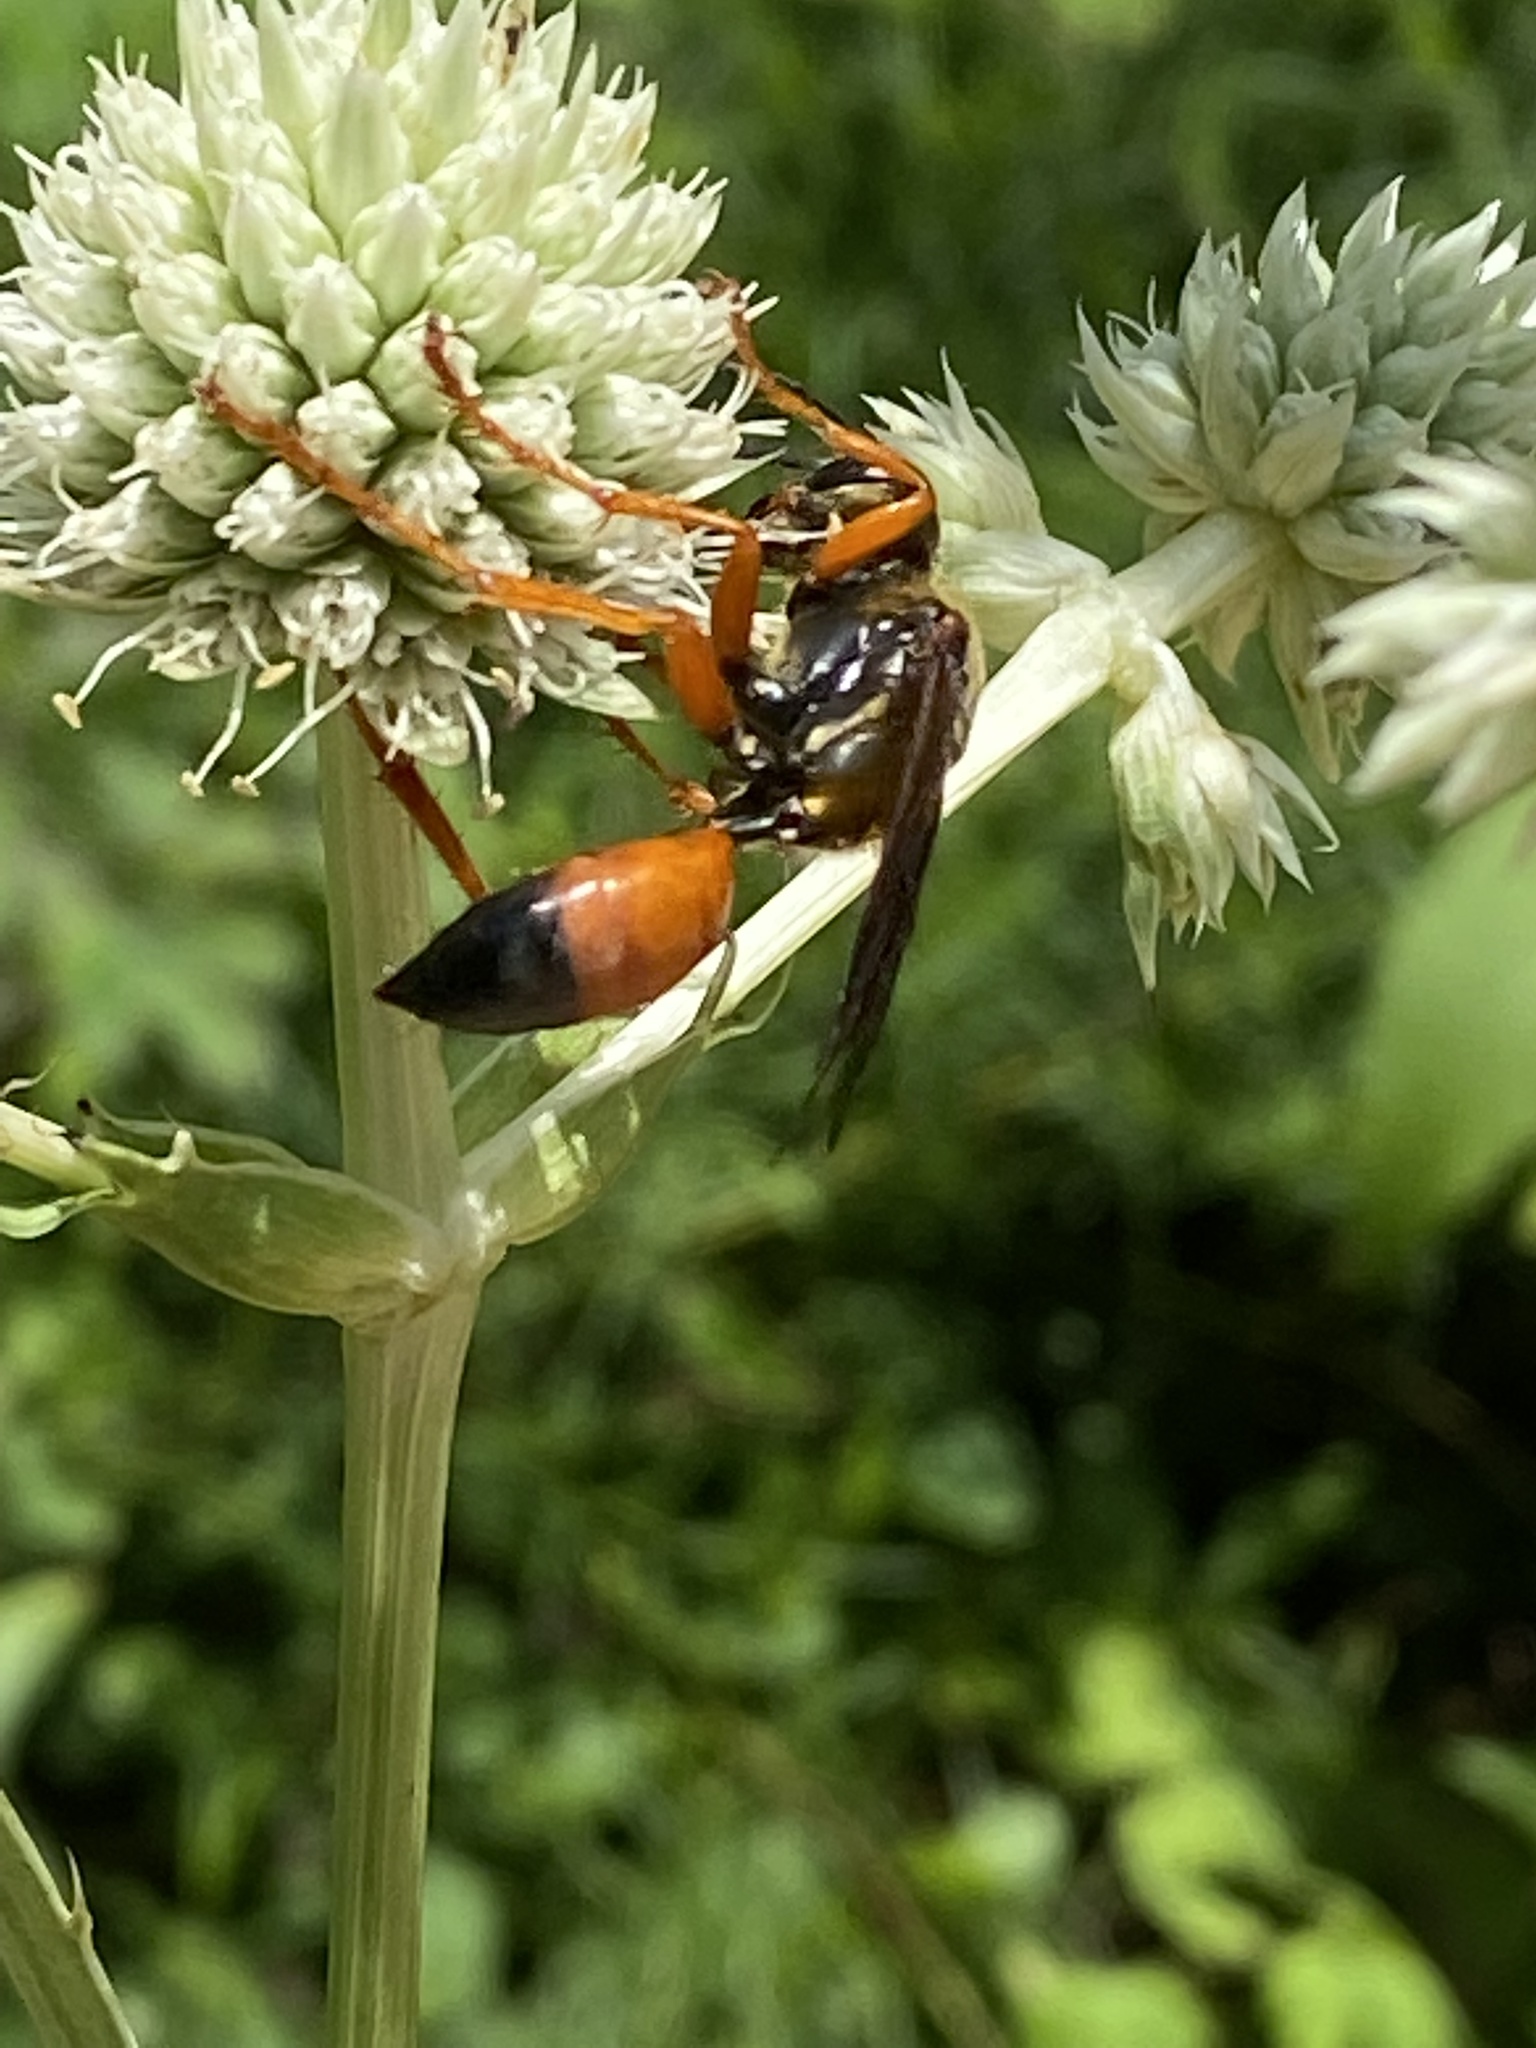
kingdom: Animalia
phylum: Arthropoda
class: Insecta
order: Hymenoptera
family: Sphecidae
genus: Sphex
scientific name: Sphex ichneumoneus
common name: Great golden digger wasp
